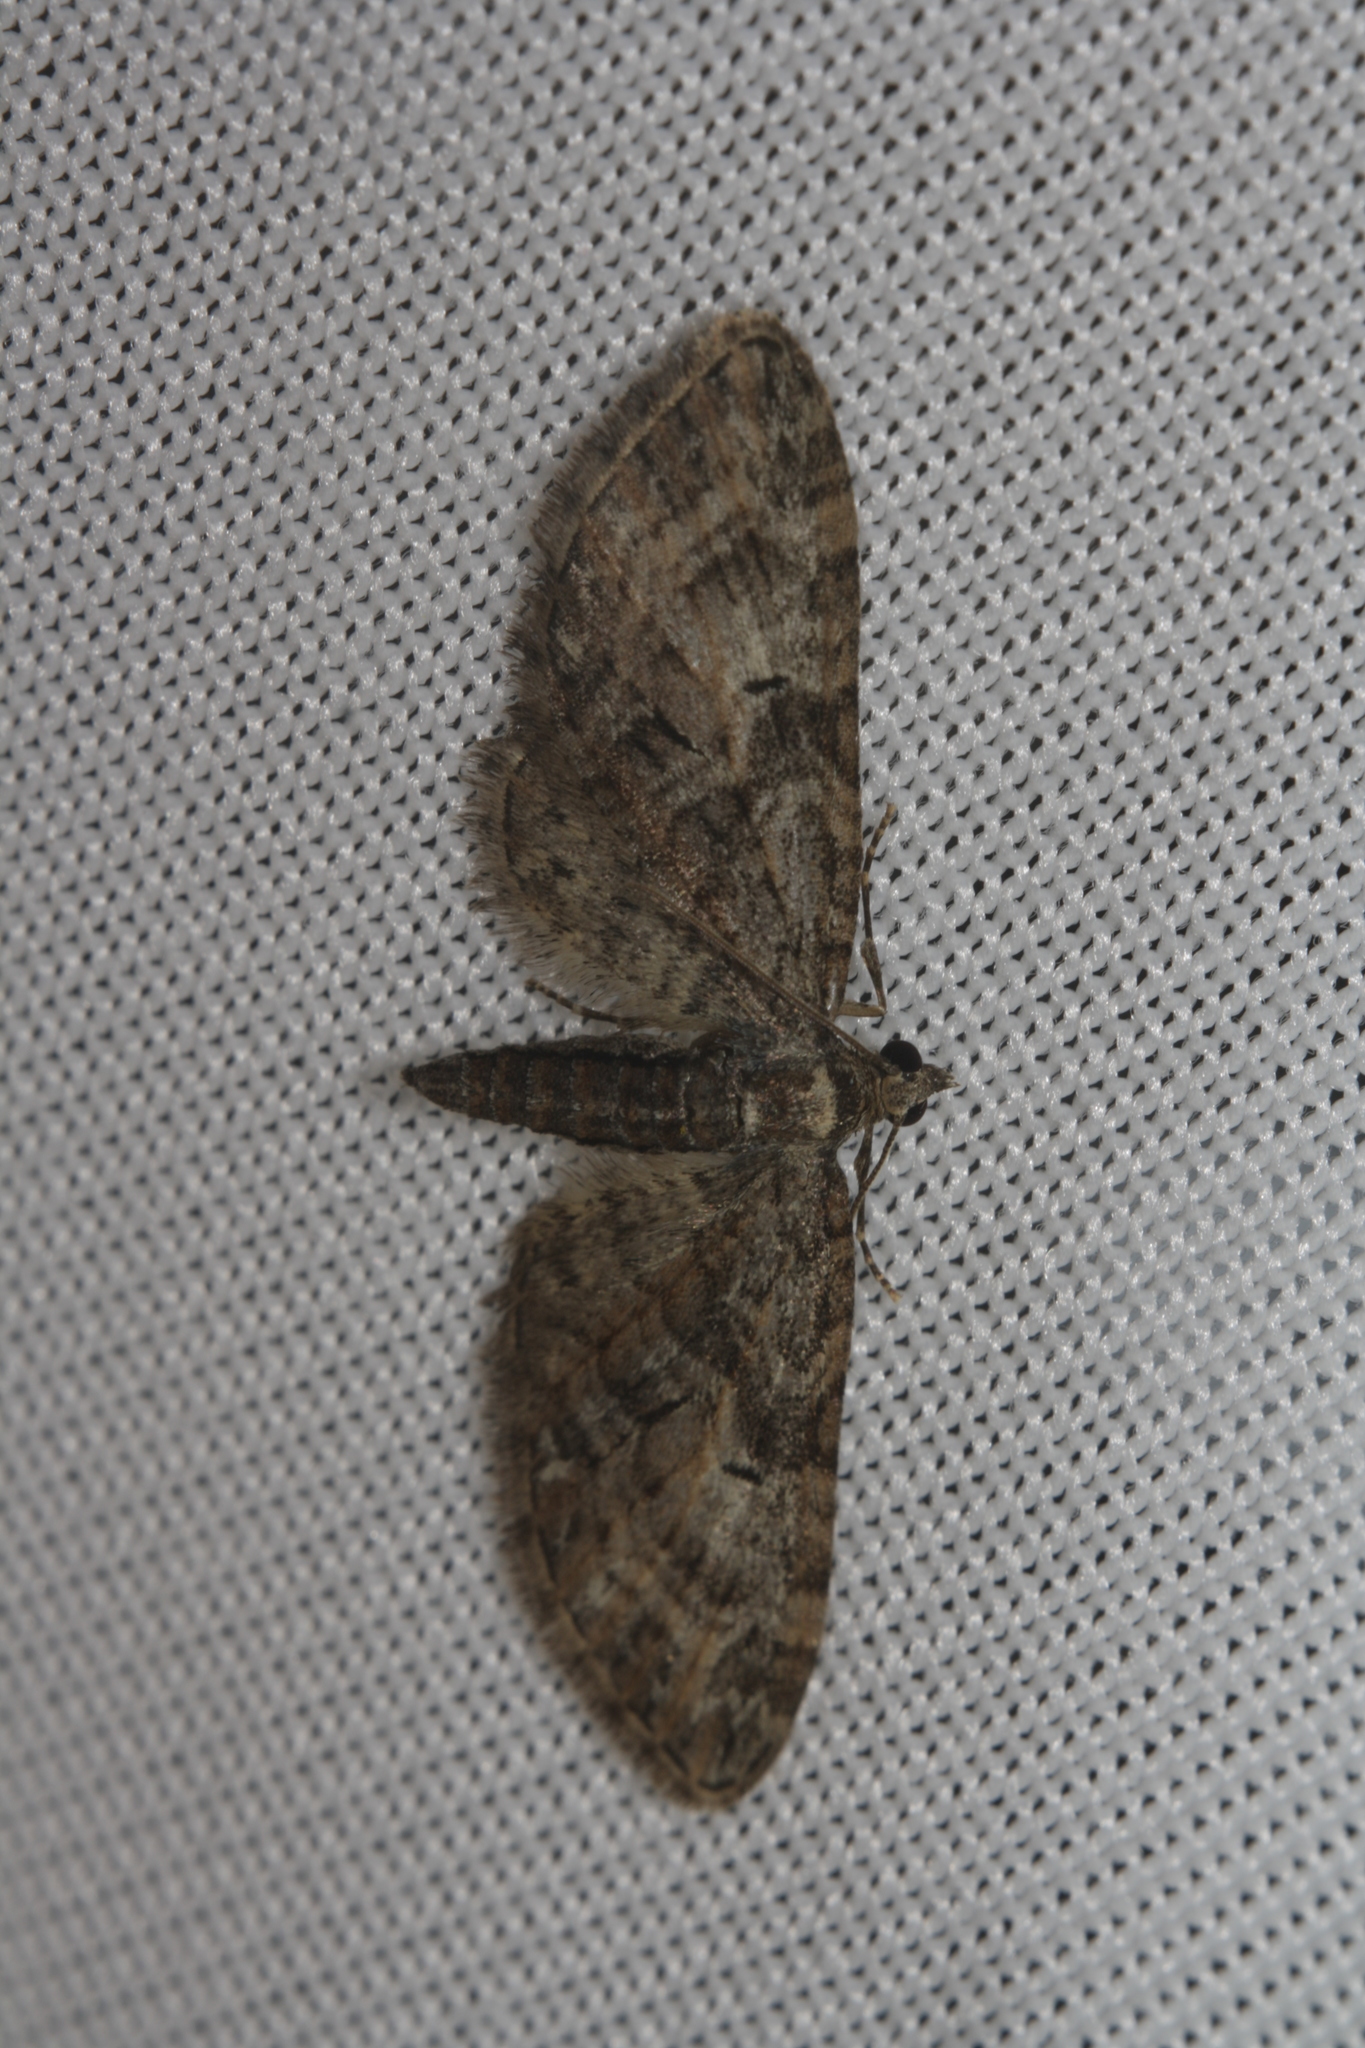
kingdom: Animalia
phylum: Arthropoda
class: Insecta
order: Lepidoptera
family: Geometridae
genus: Eupithecia
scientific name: Eupithecia abbreviata
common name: Brindled pug
